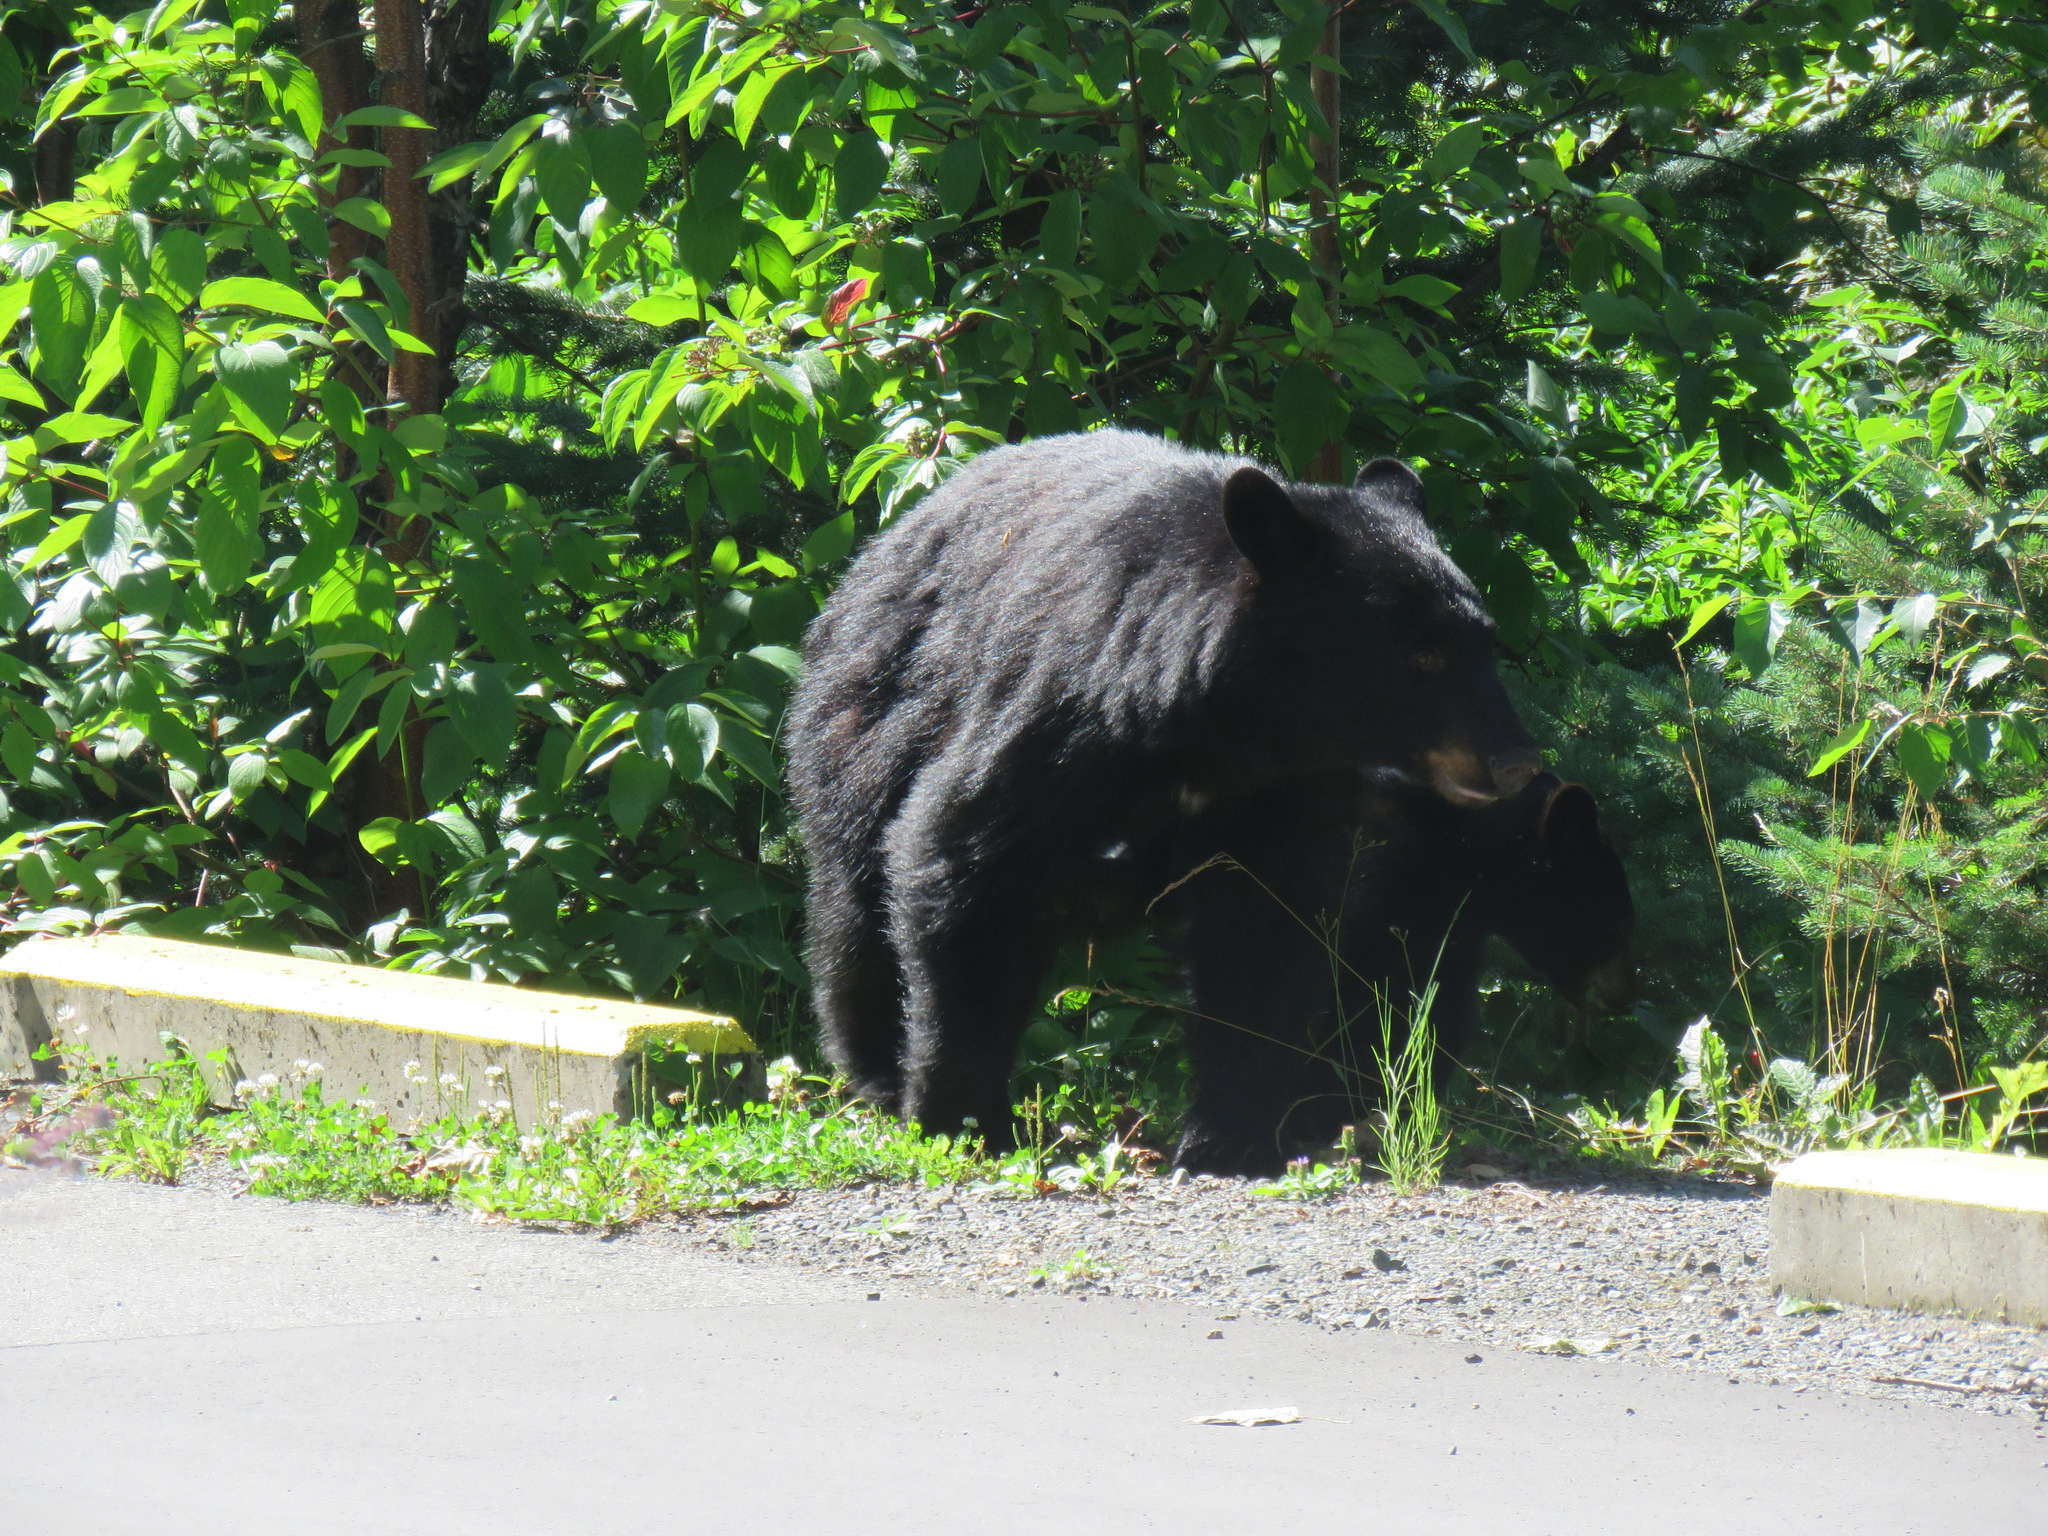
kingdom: Animalia
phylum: Chordata
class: Mammalia
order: Carnivora
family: Ursidae
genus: Ursus
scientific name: Ursus americanus
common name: American black bear
